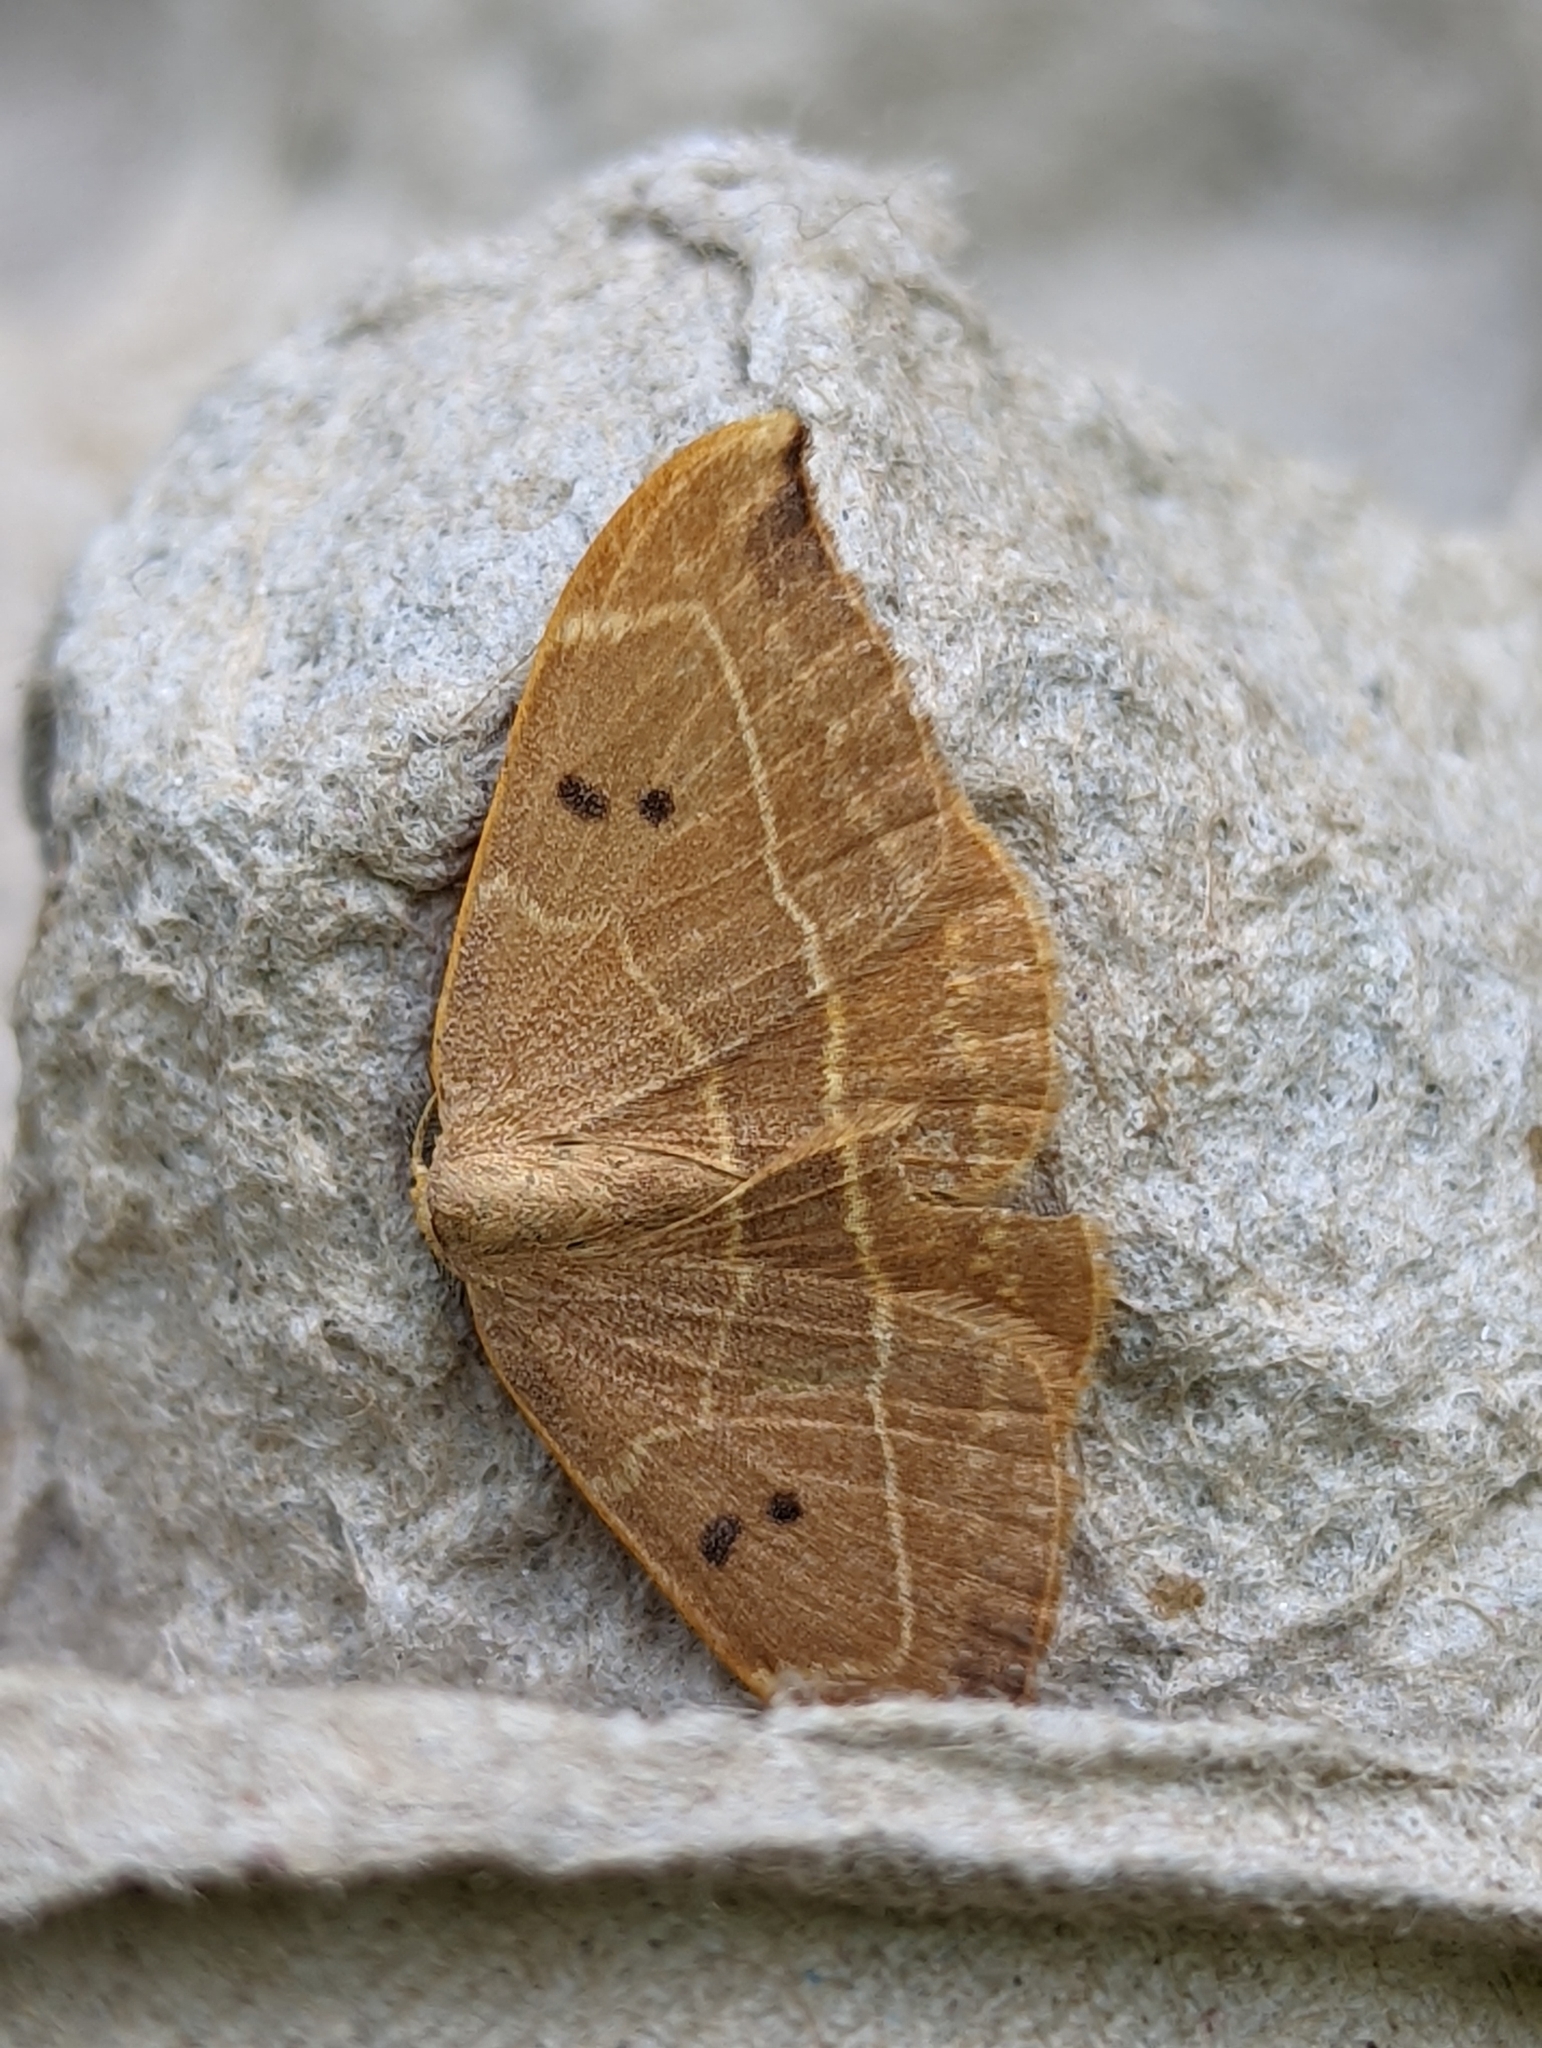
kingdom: Animalia
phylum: Arthropoda
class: Insecta
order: Lepidoptera
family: Drepanidae
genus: Watsonalla
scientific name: Watsonalla binaria
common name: Oak hook-tip
